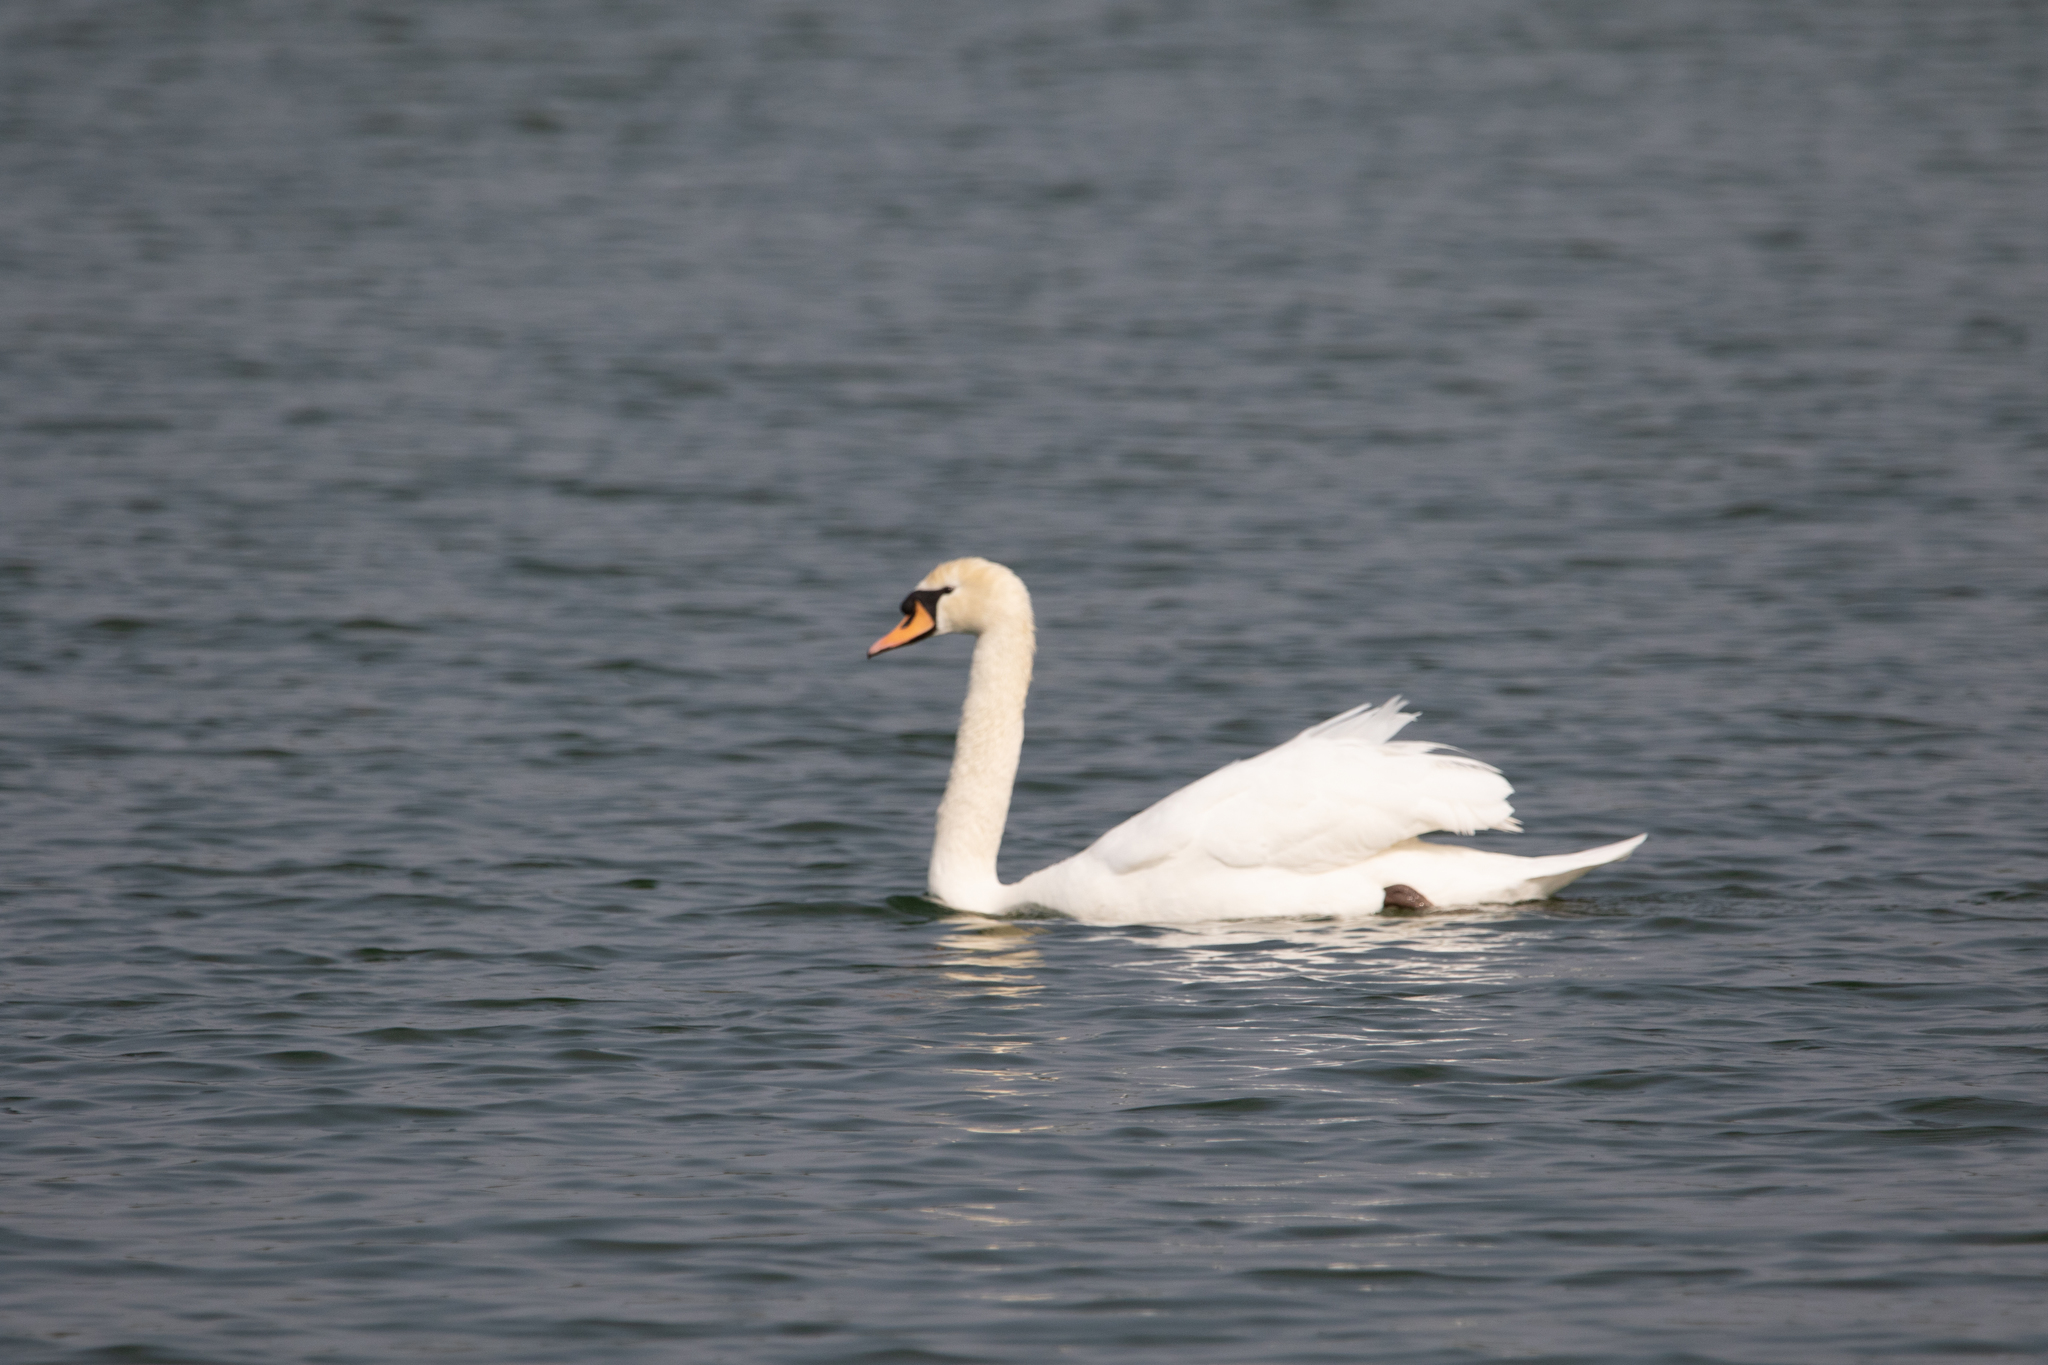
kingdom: Animalia
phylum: Chordata
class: Aves
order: Anseriformes
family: Anatidae
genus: Cygnus
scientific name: Cygnus olor
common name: Mute swan
